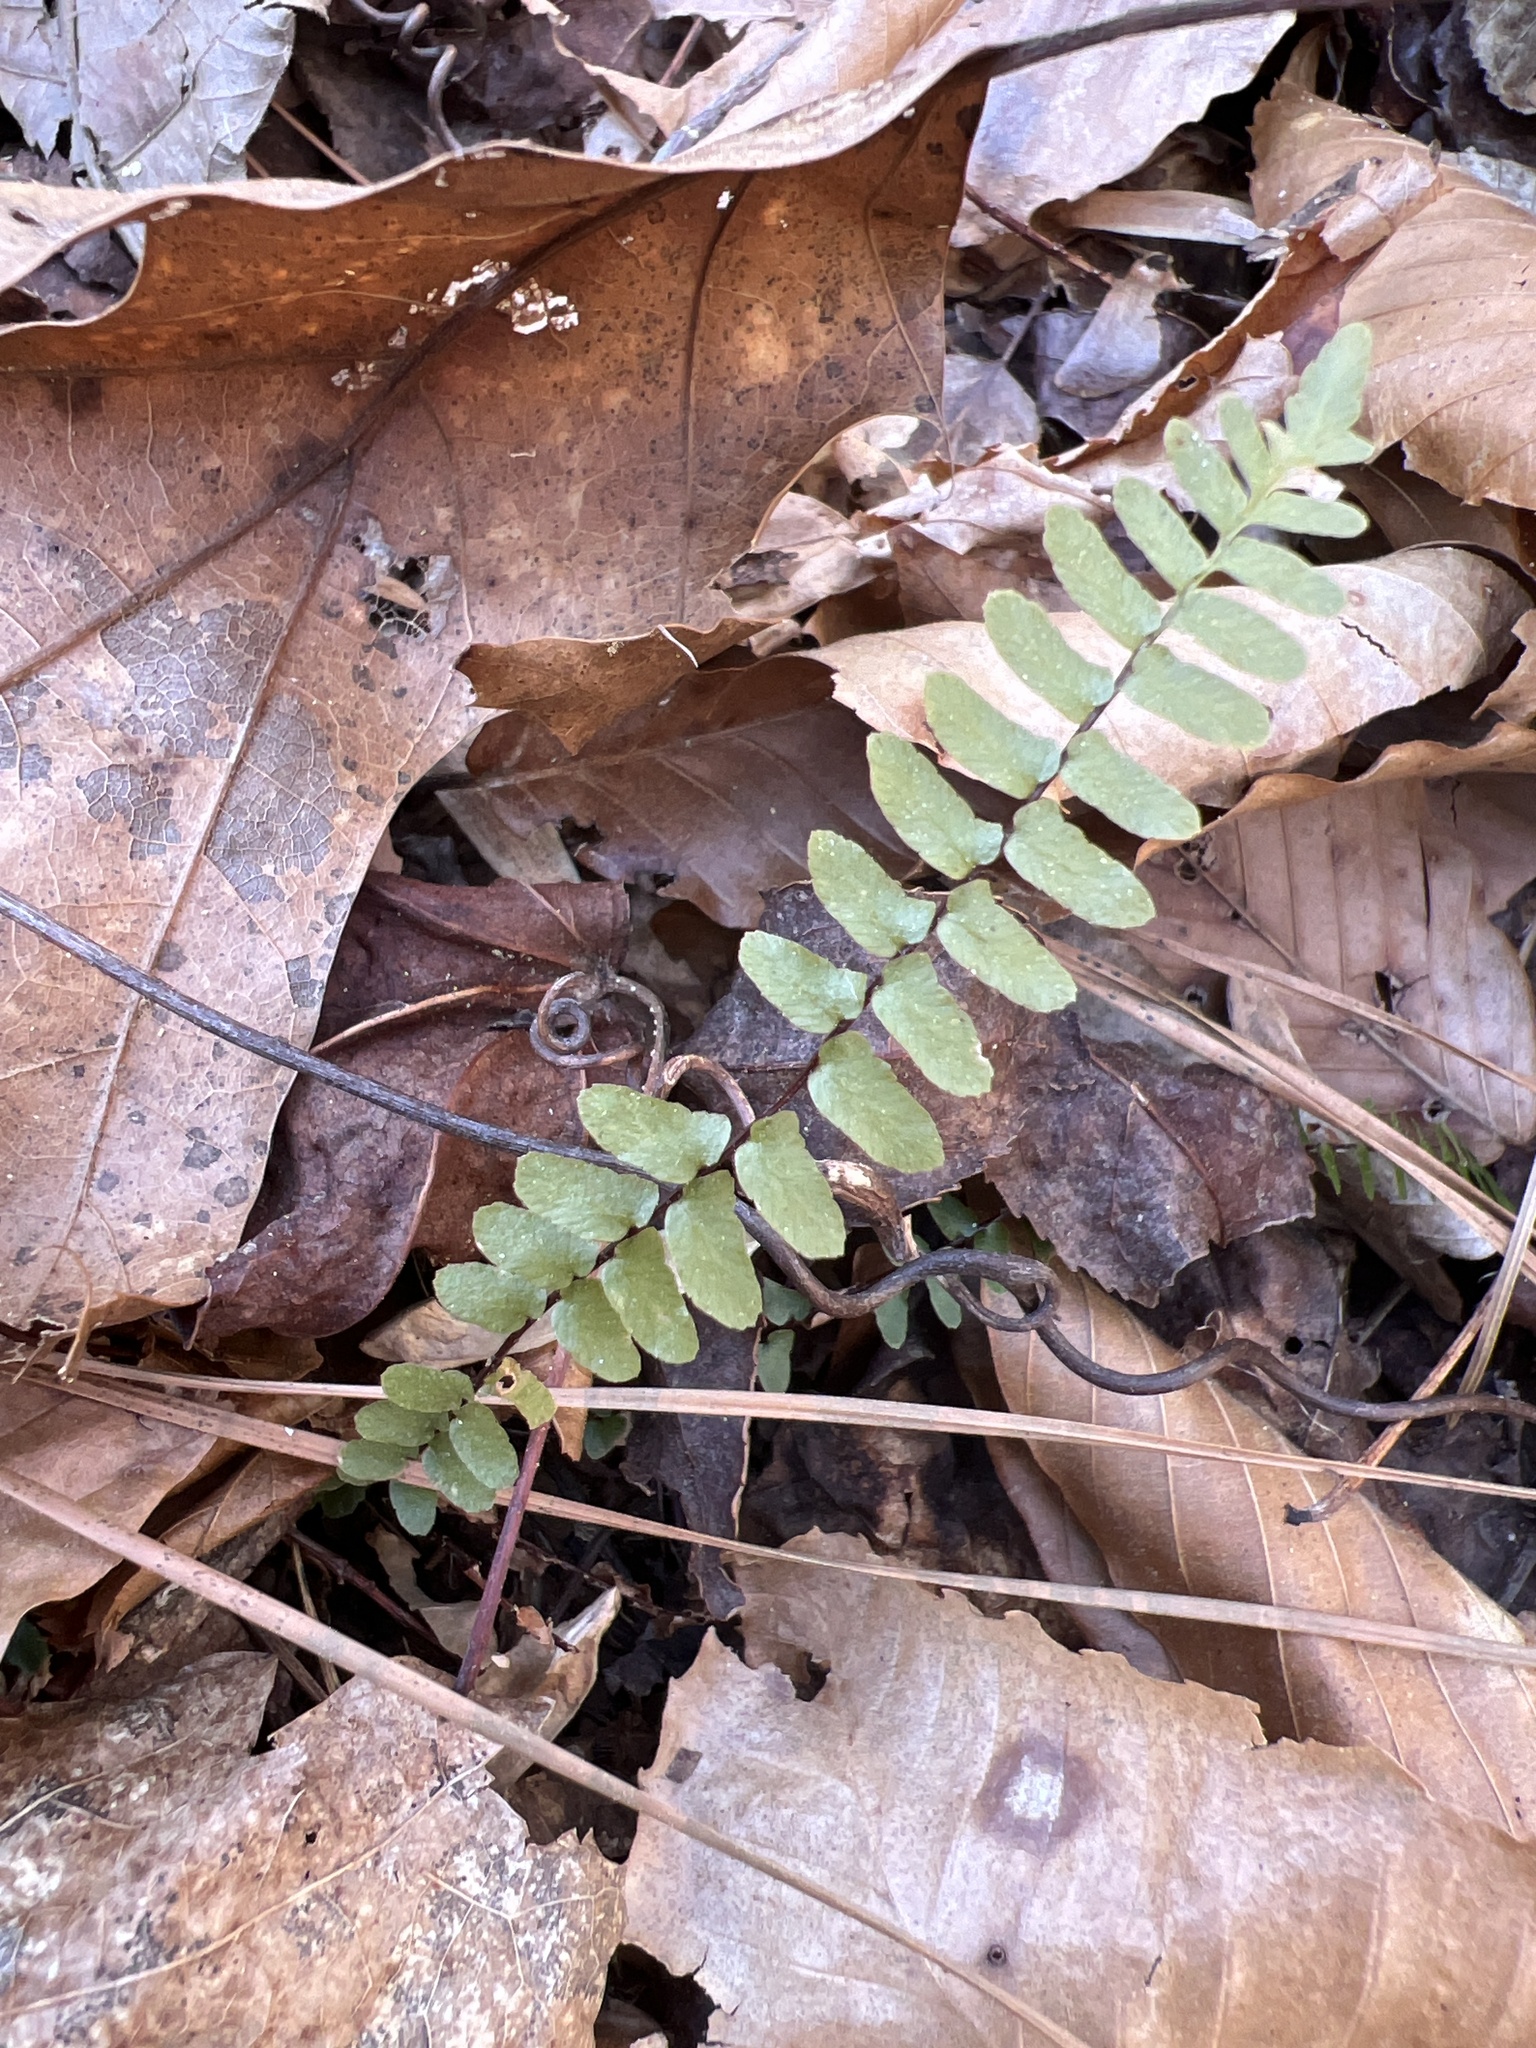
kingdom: Plantae
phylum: Tracheophyta
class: Polypodiopsida
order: Polypodiales
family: Aspleniaceae
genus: Asplenium
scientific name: Asplenium platyneuron
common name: Ebony spleenwort
